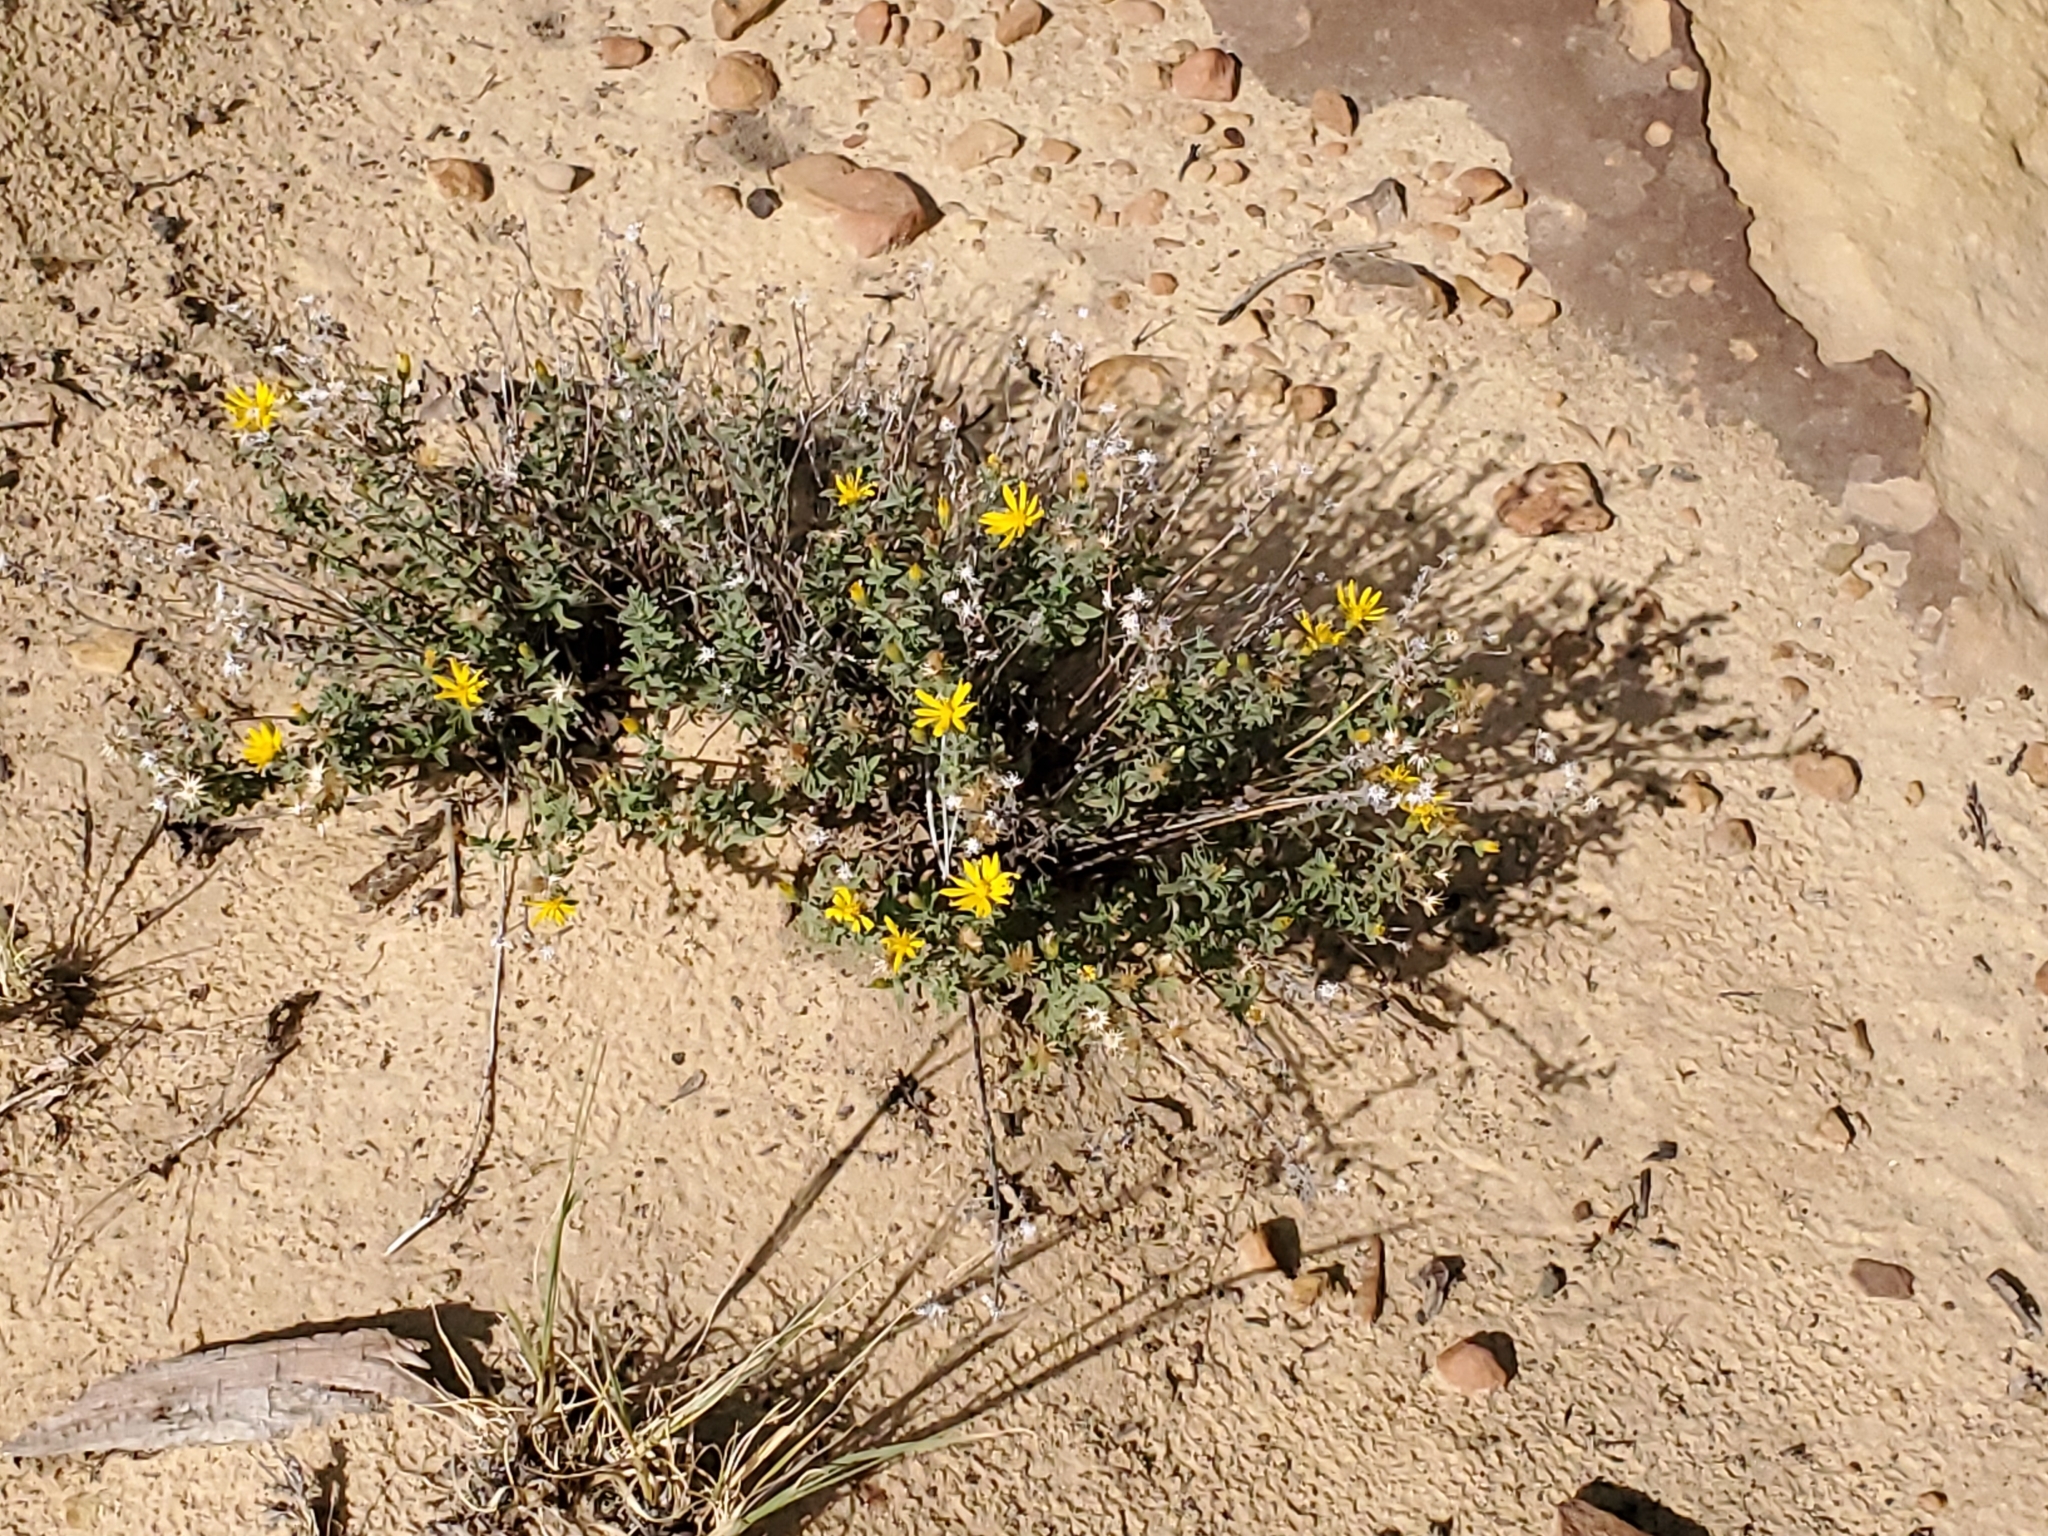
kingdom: Plantae
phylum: Tracheophyta
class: Magnoliopsida
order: Asterales
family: Asteraceae
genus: Heterotheca
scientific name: Heterotheca villosa
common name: Hairy false goldenaster
